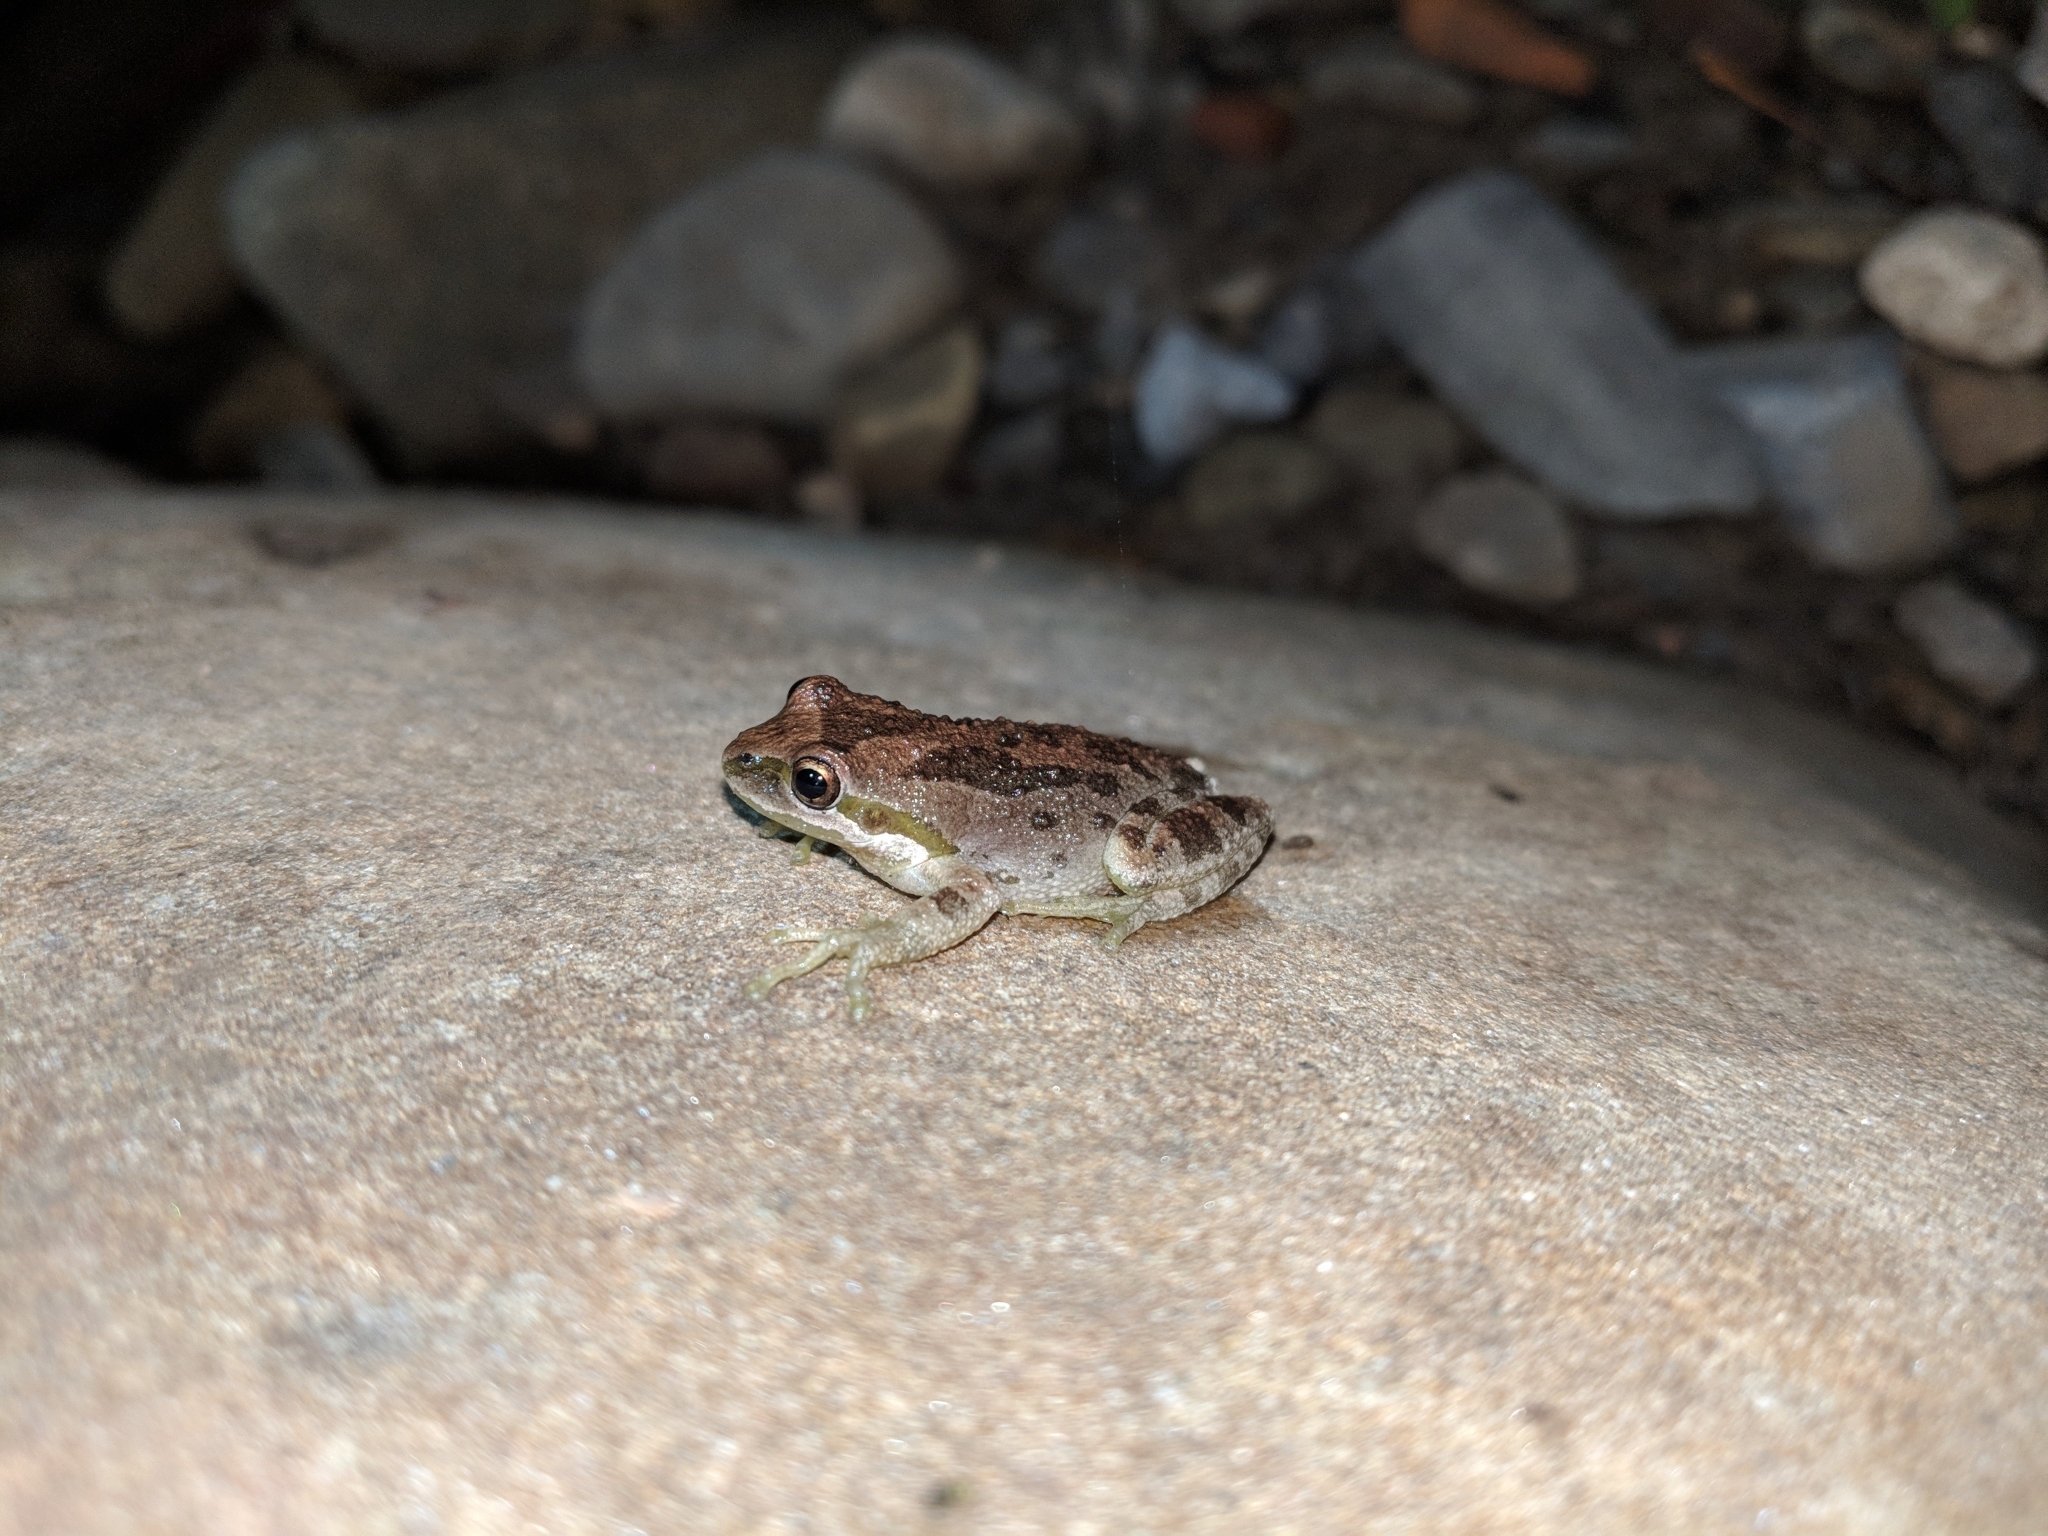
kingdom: Animalia
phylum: Chordata
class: Amphibia
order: Anura
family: Hylidae
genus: Pseudacris
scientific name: Pseudacris regilla
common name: Pacific chorus frog
